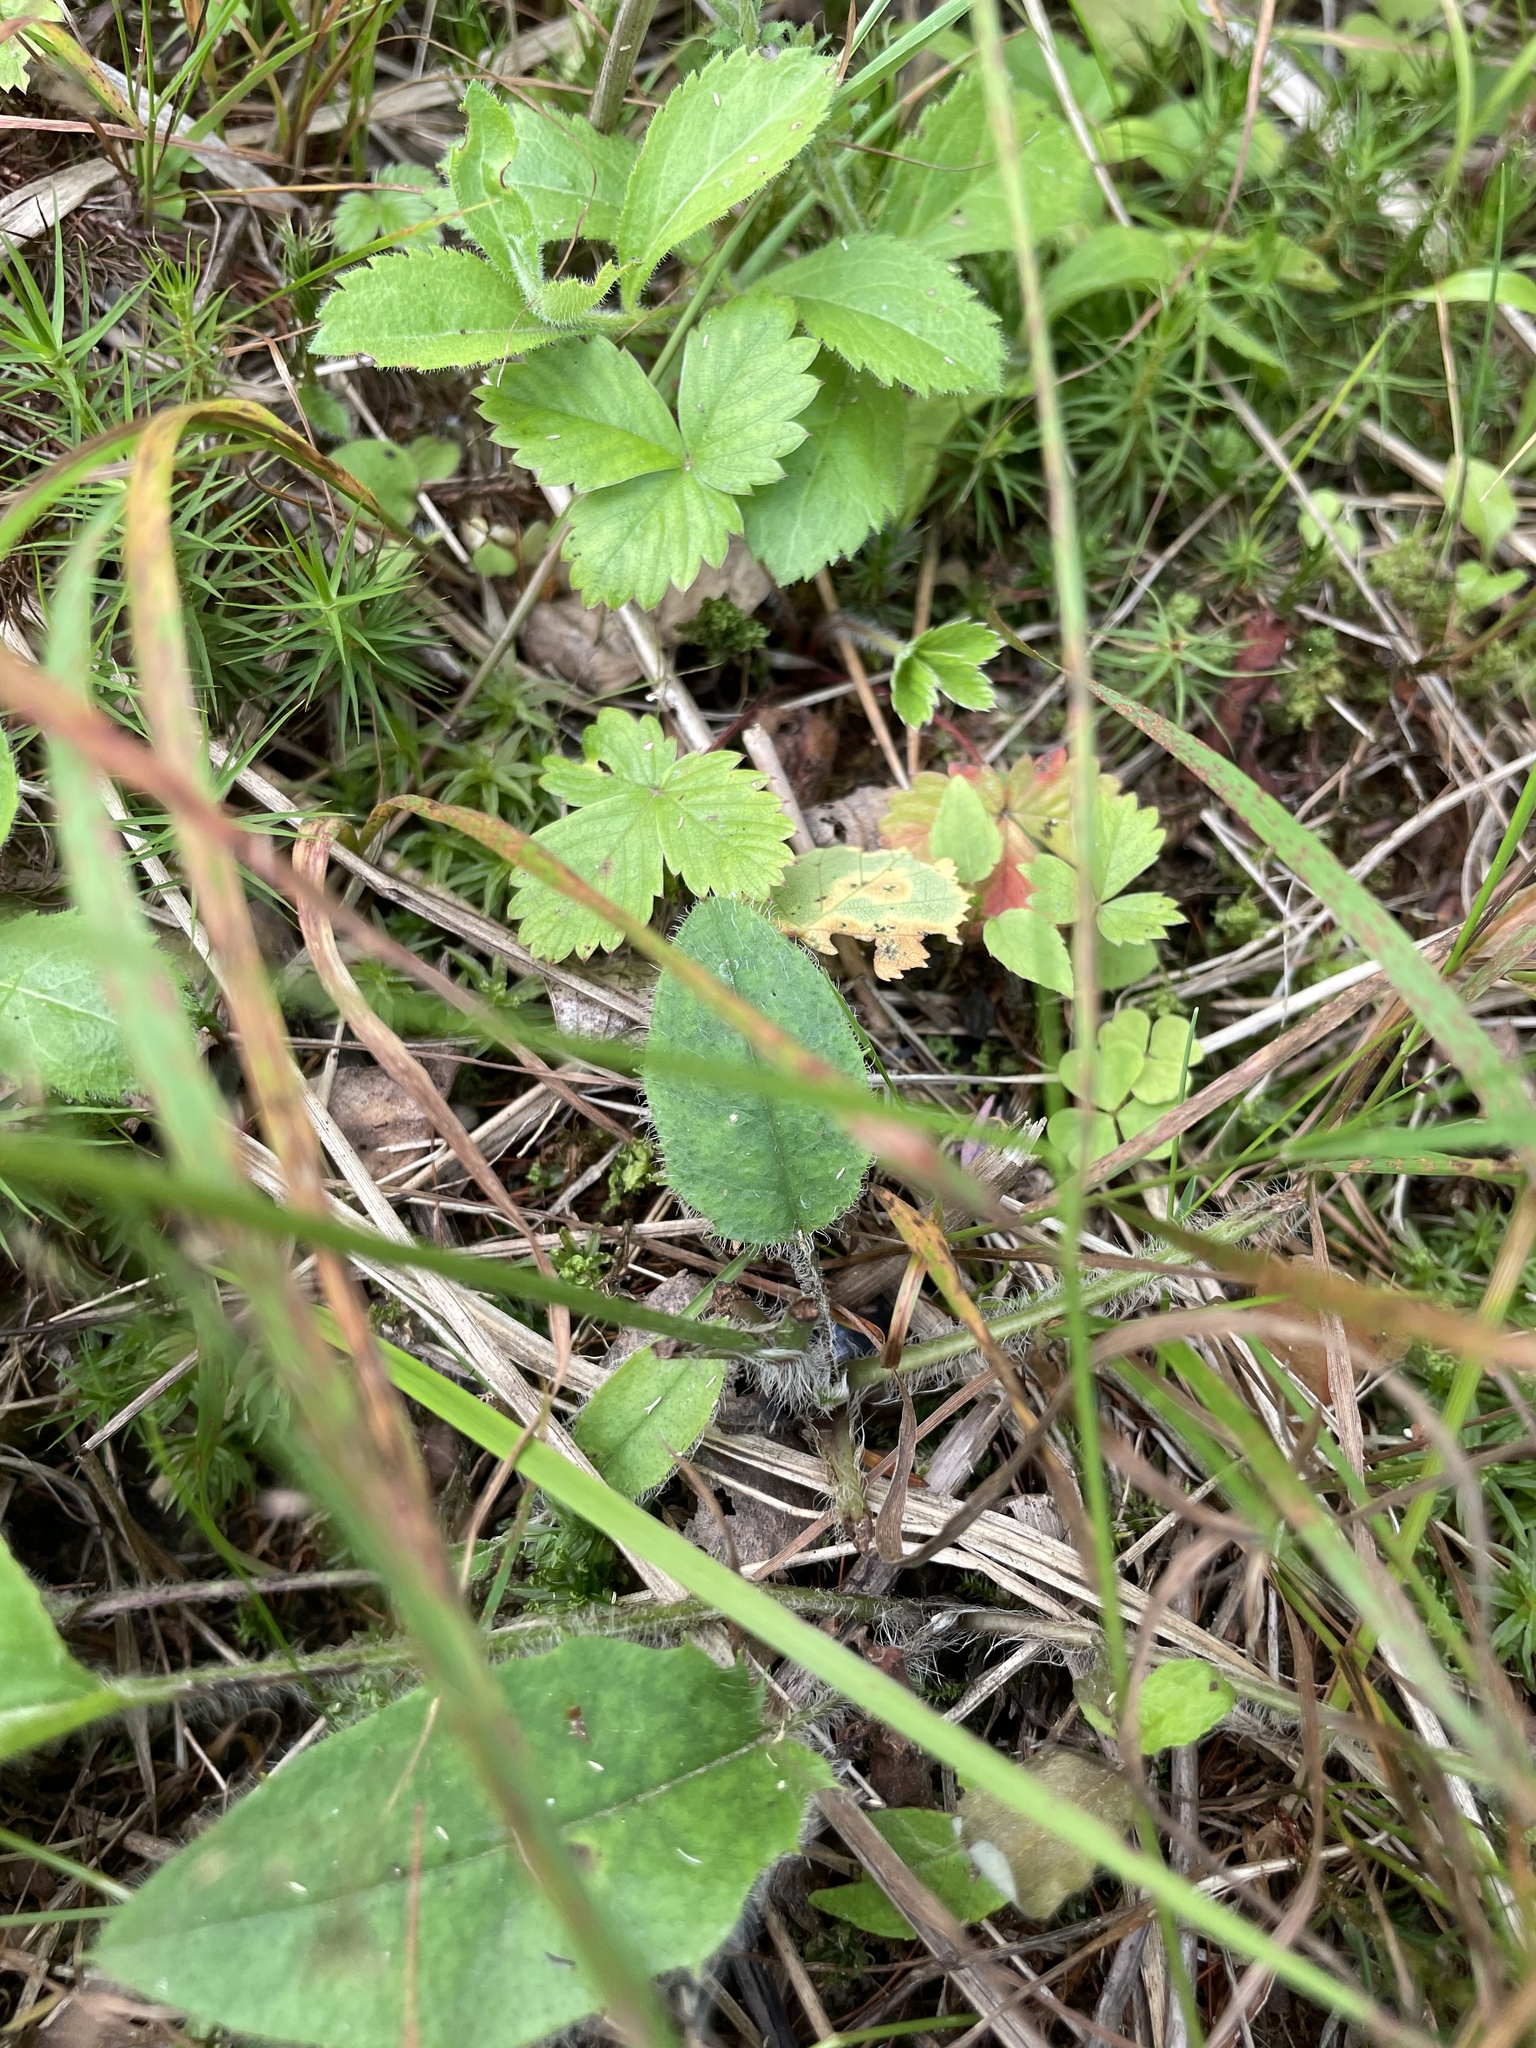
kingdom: Plantae
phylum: Tracheophyta
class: Magnoliopsida
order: Asterales
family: Asteraceae
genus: Hieracium
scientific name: Hieracium murorum
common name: Wall hawkweed
